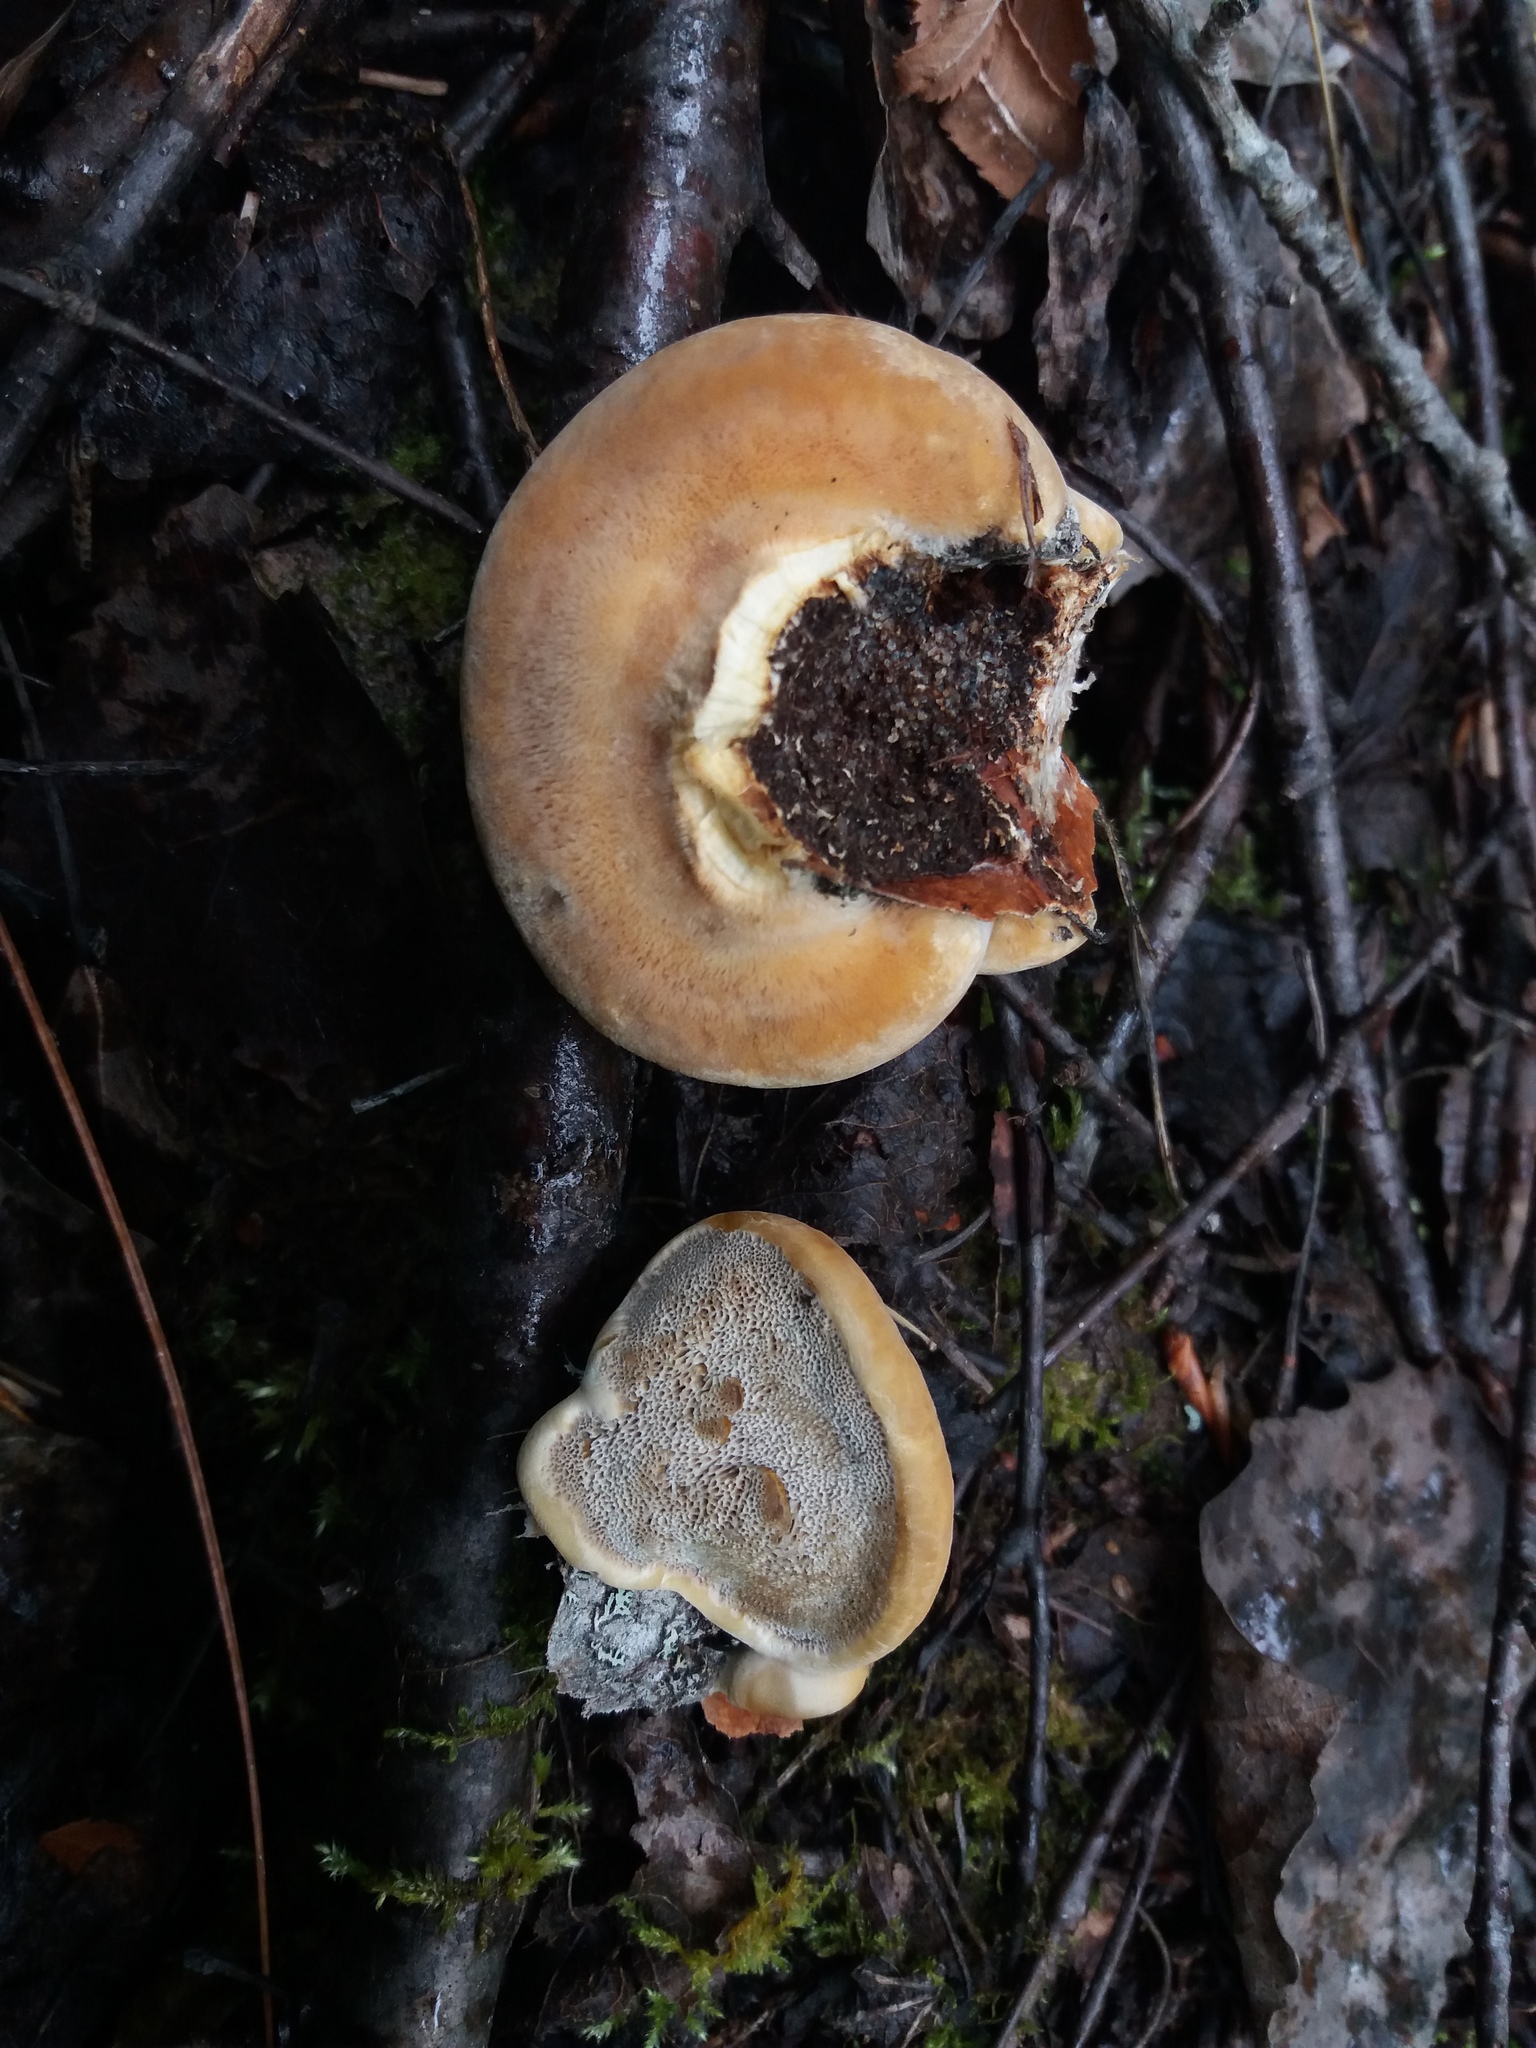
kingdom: Fungi
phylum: Basidiomycota
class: Agaricomycetes
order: Hymenochaetales
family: Hymenochaetaceae
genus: Inocutis
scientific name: Inocutis rheades
